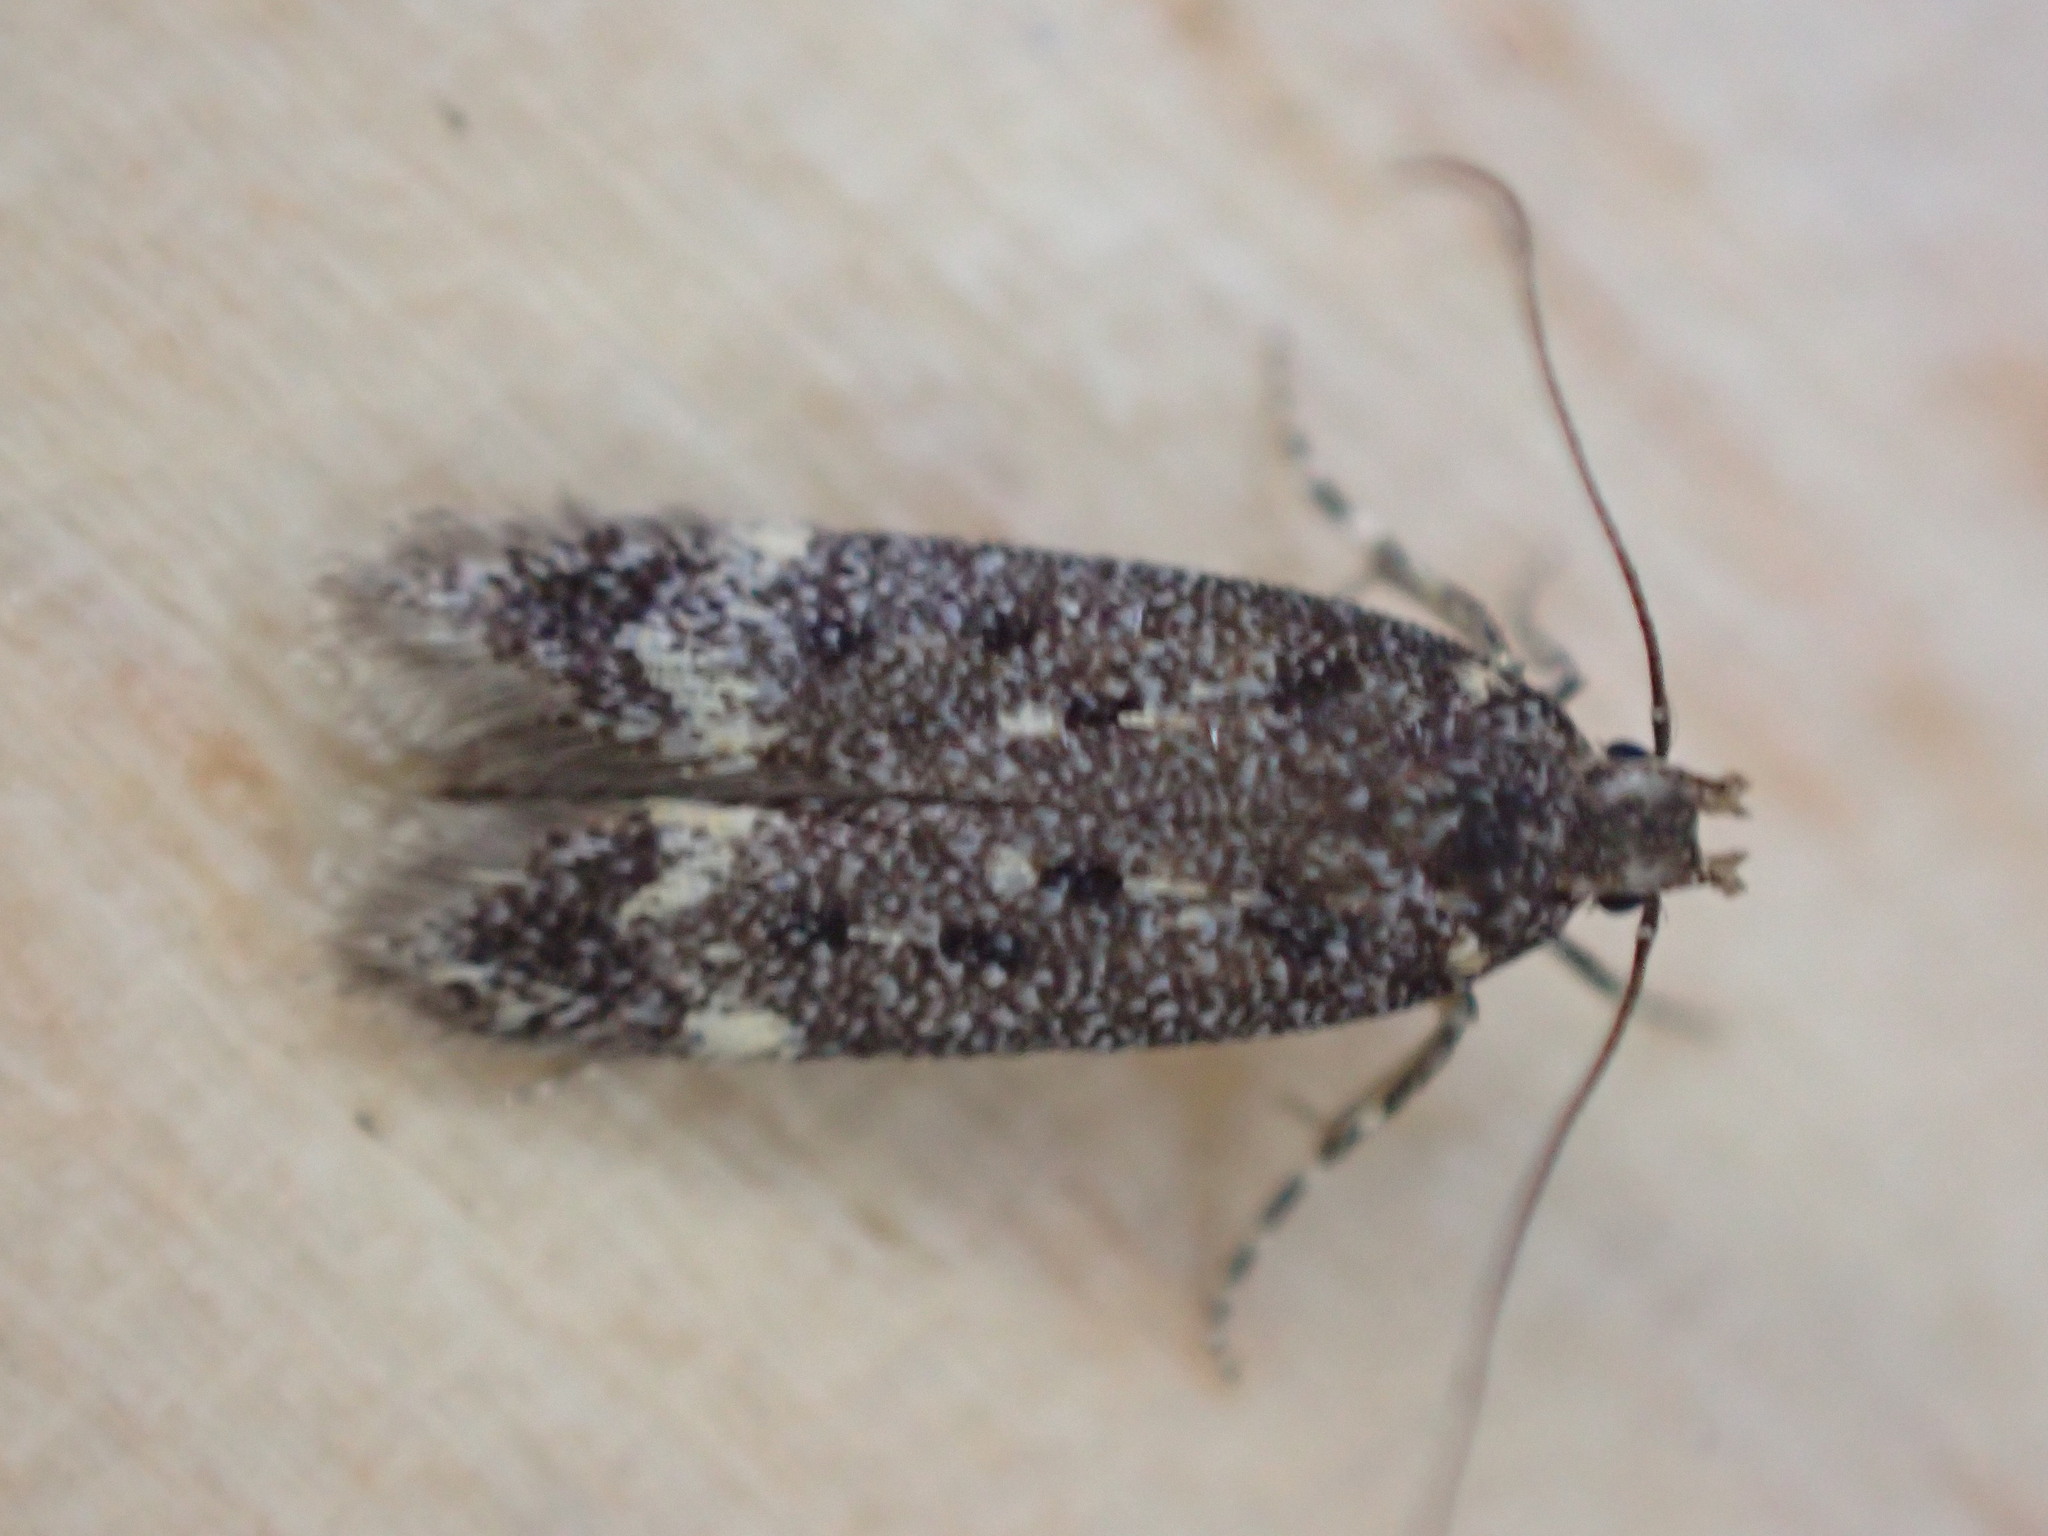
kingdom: Animalia
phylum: Arthropoda
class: Insecta
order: Lepidoptera
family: Gelechiidae
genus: Bryotropha
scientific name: Bryotropha affinis
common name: Dark groundling
